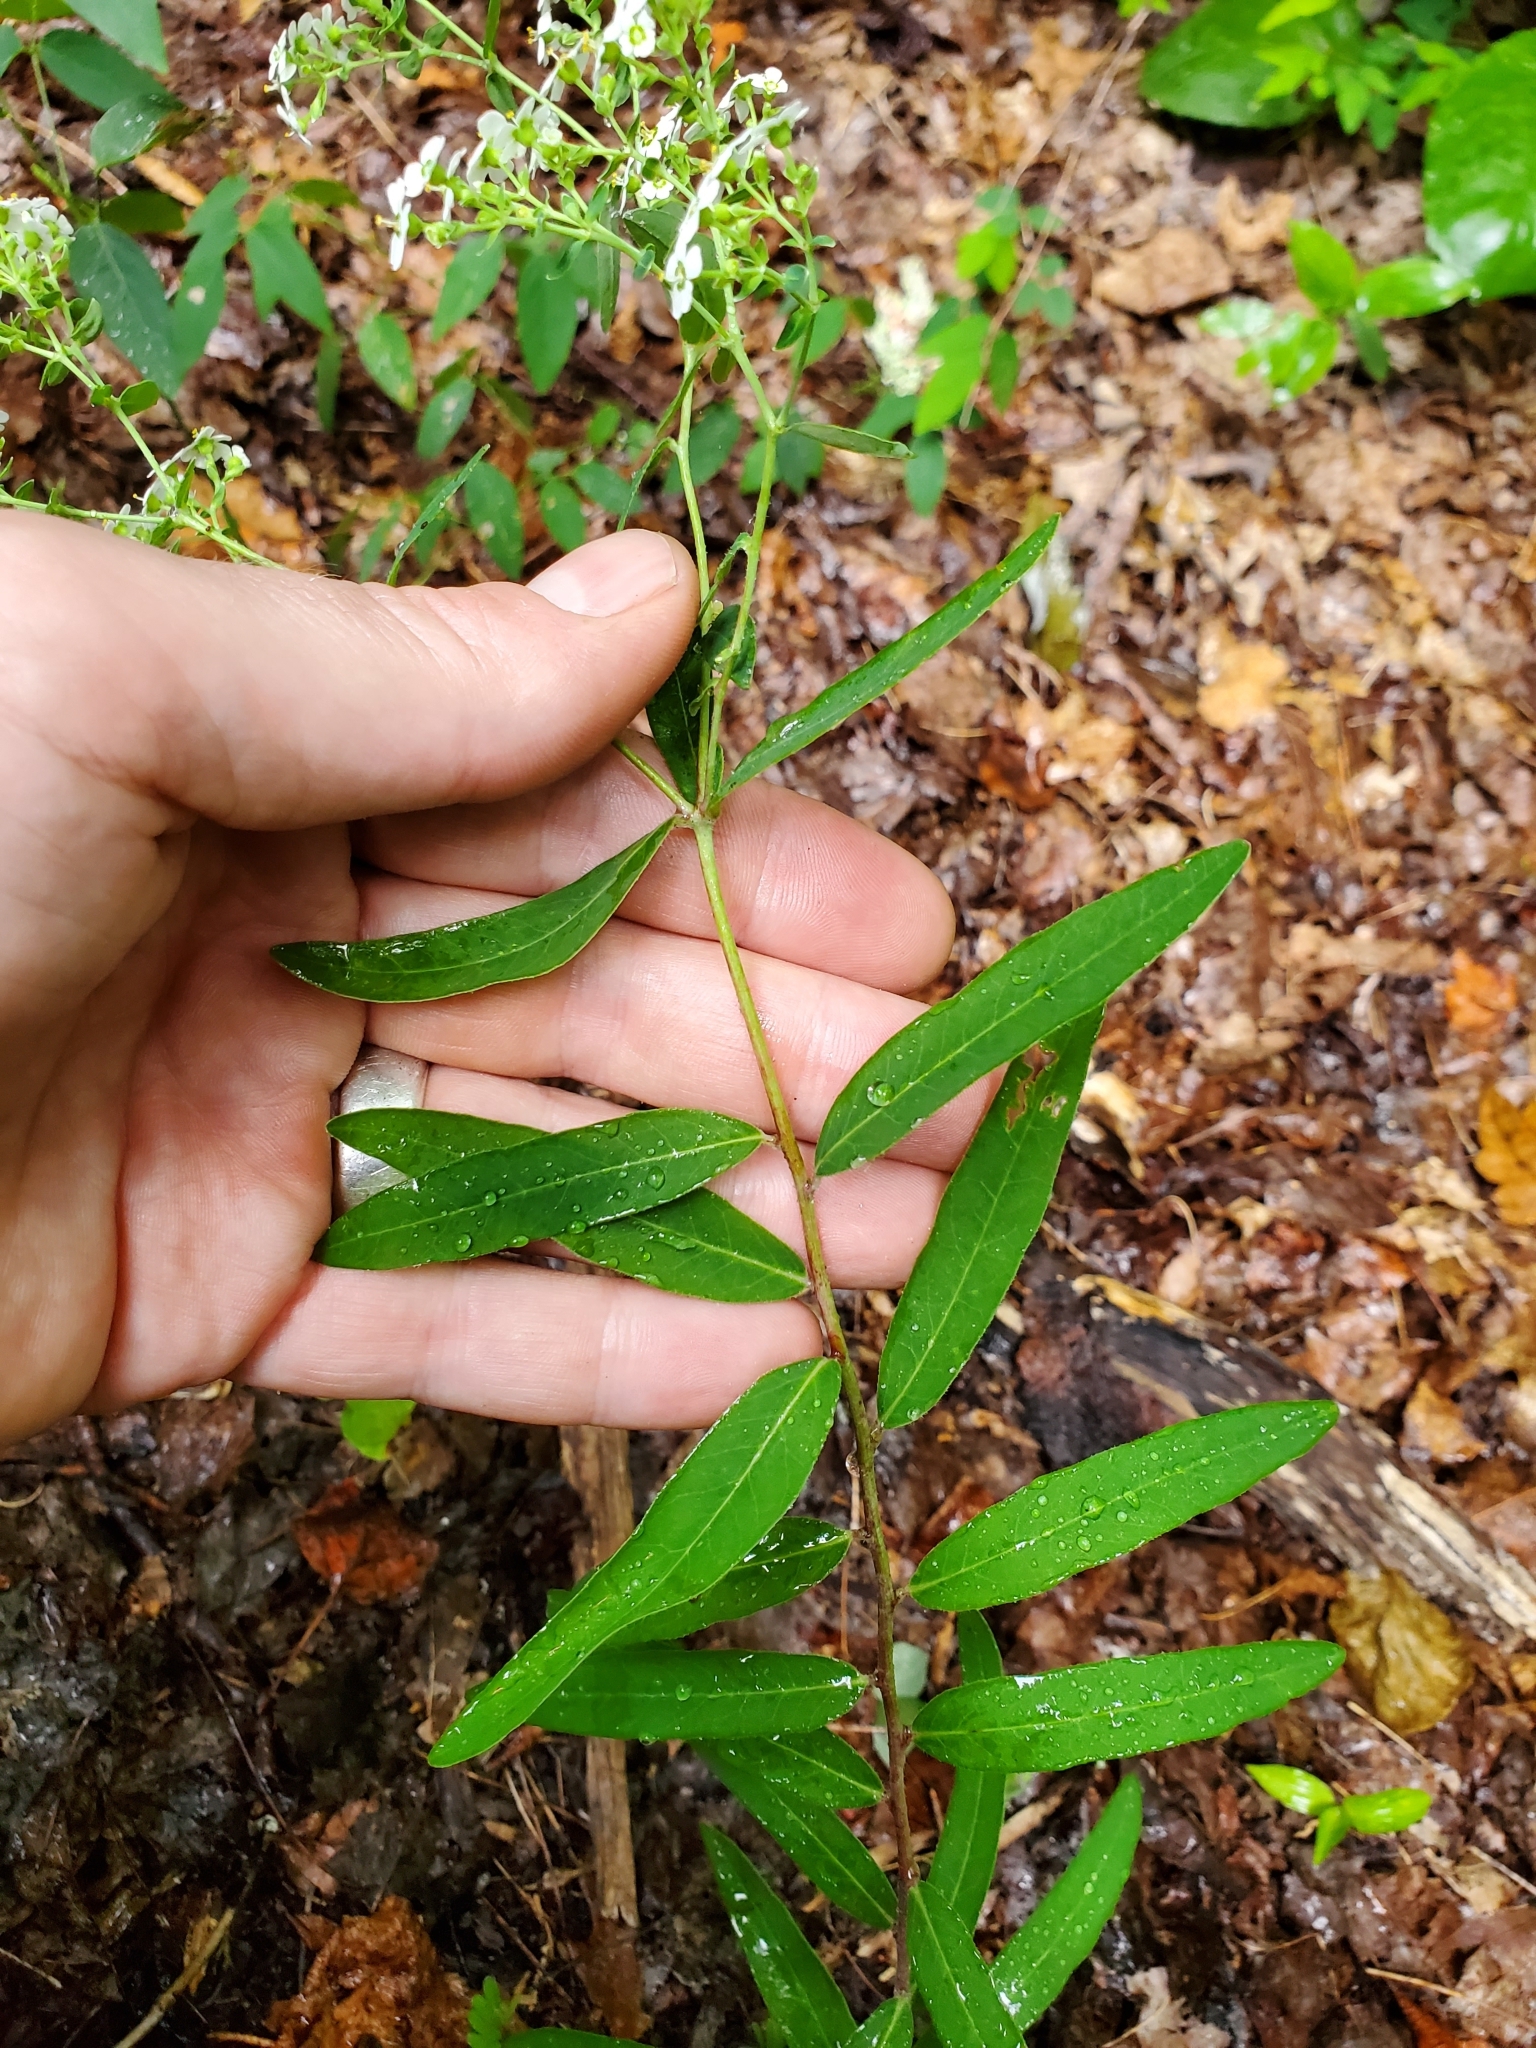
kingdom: Plantae
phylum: Tracheophyta
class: Magnoliopsida
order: Malpighiales
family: Euphorbiaceae
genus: Euphorbia
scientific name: Euphorbia corollata
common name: Flowering spurge
